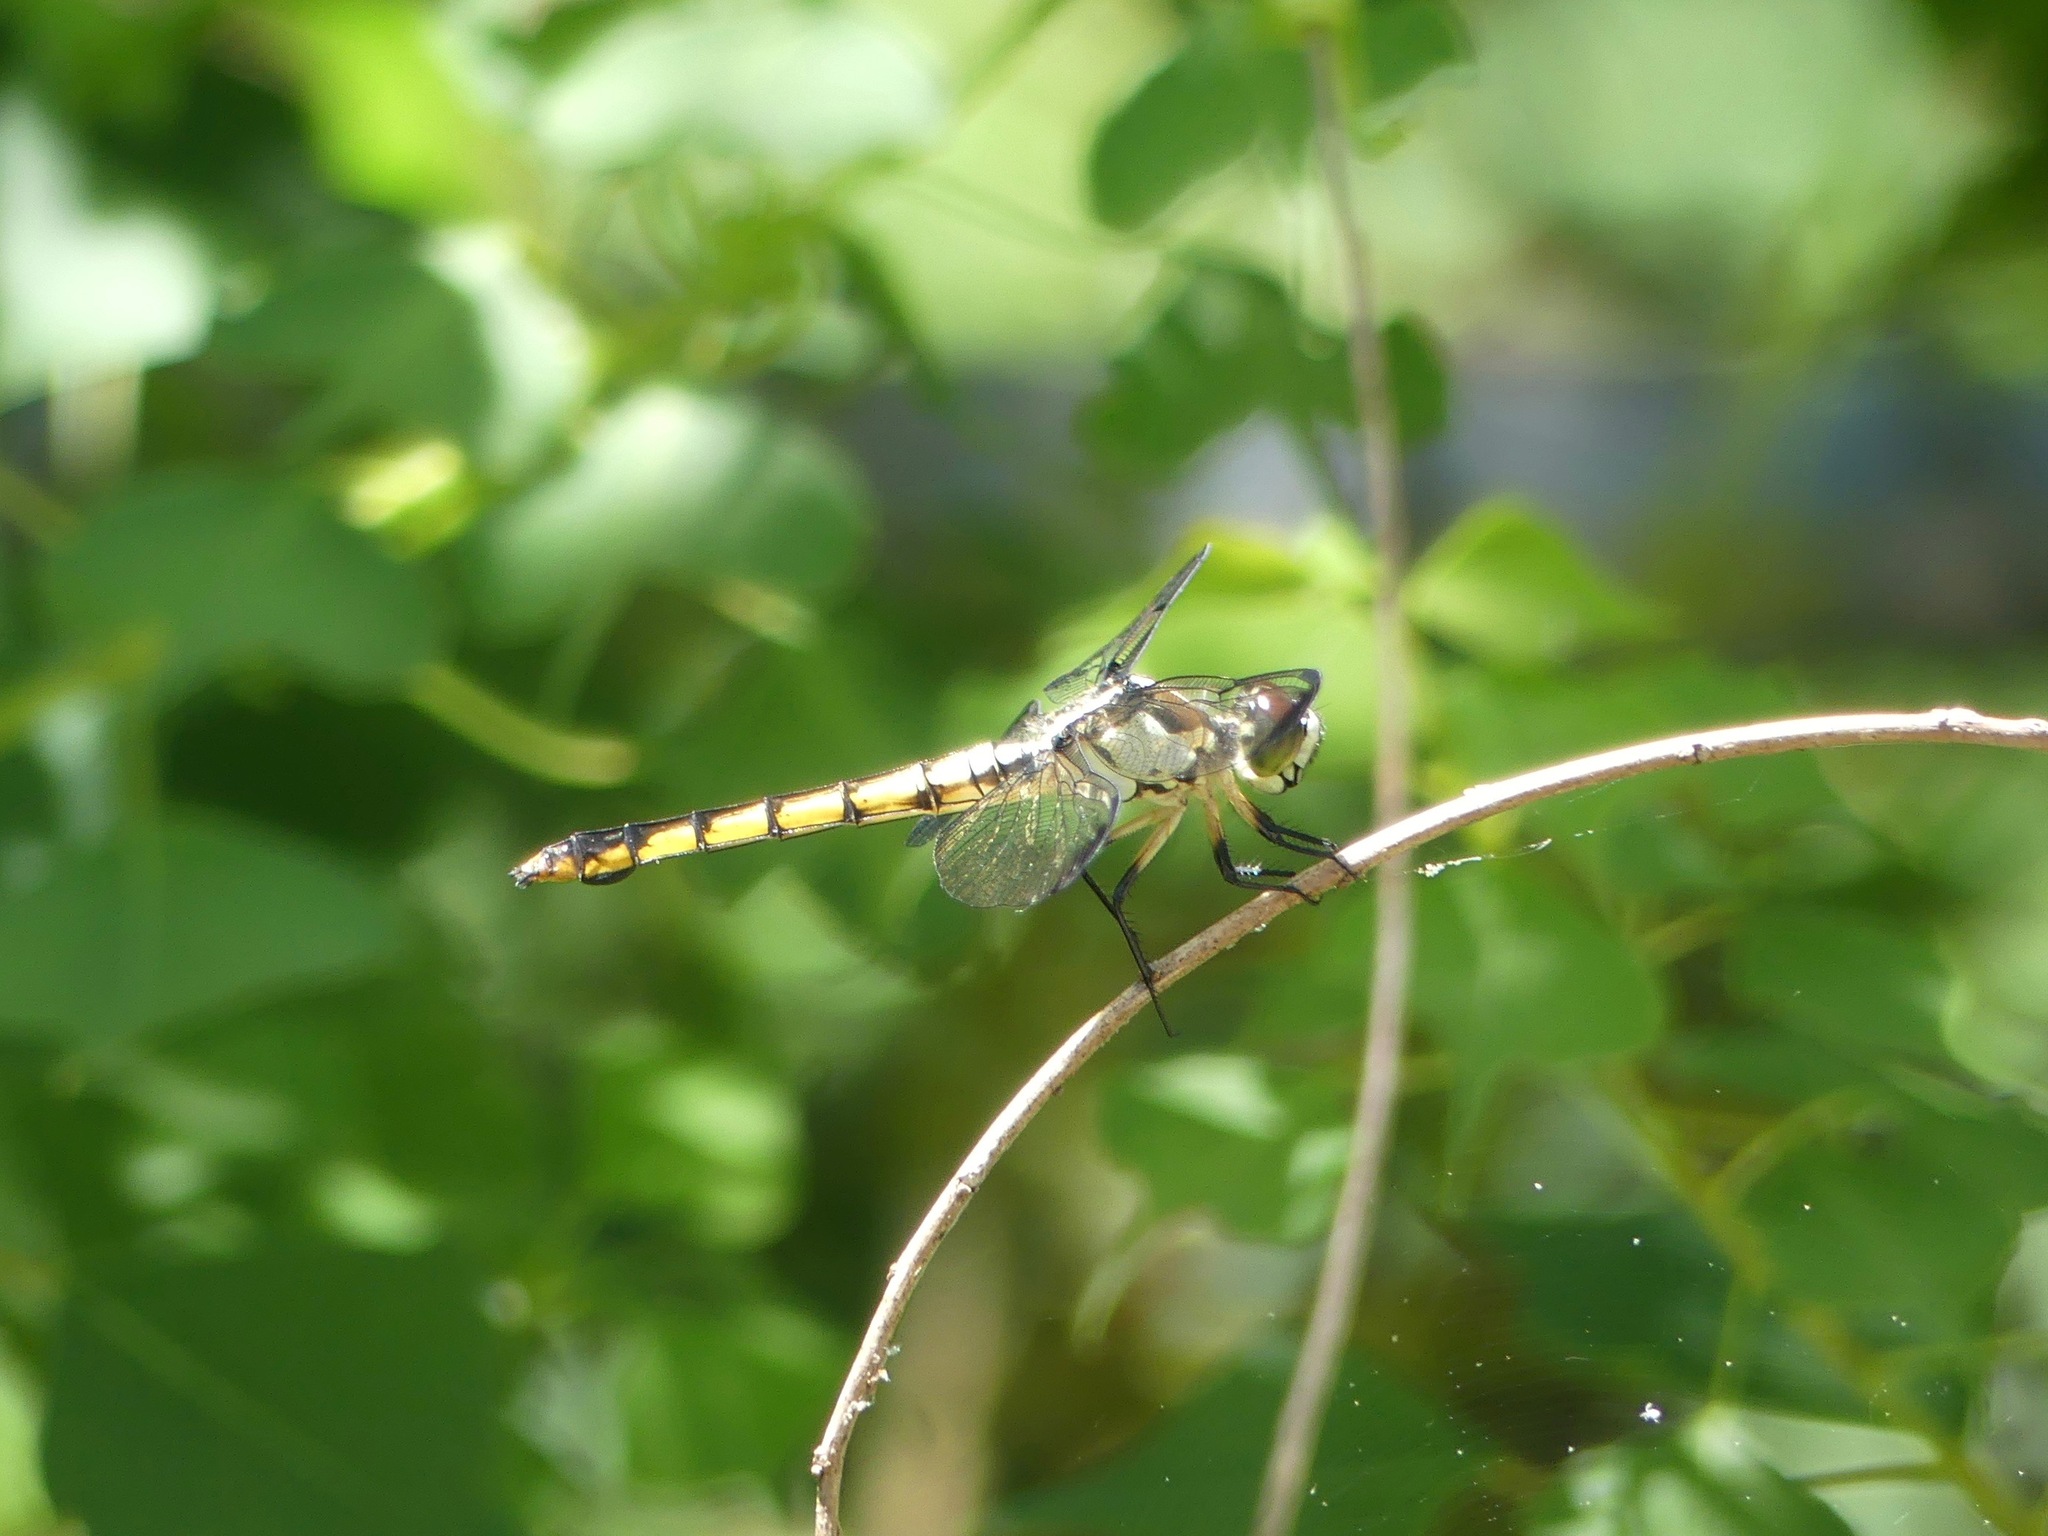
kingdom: Animalia
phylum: Arthropoda
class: Insecta
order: Odonata
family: Libellulidae
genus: Libellula
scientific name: Libellula vibrans
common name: Great blue skimmer
